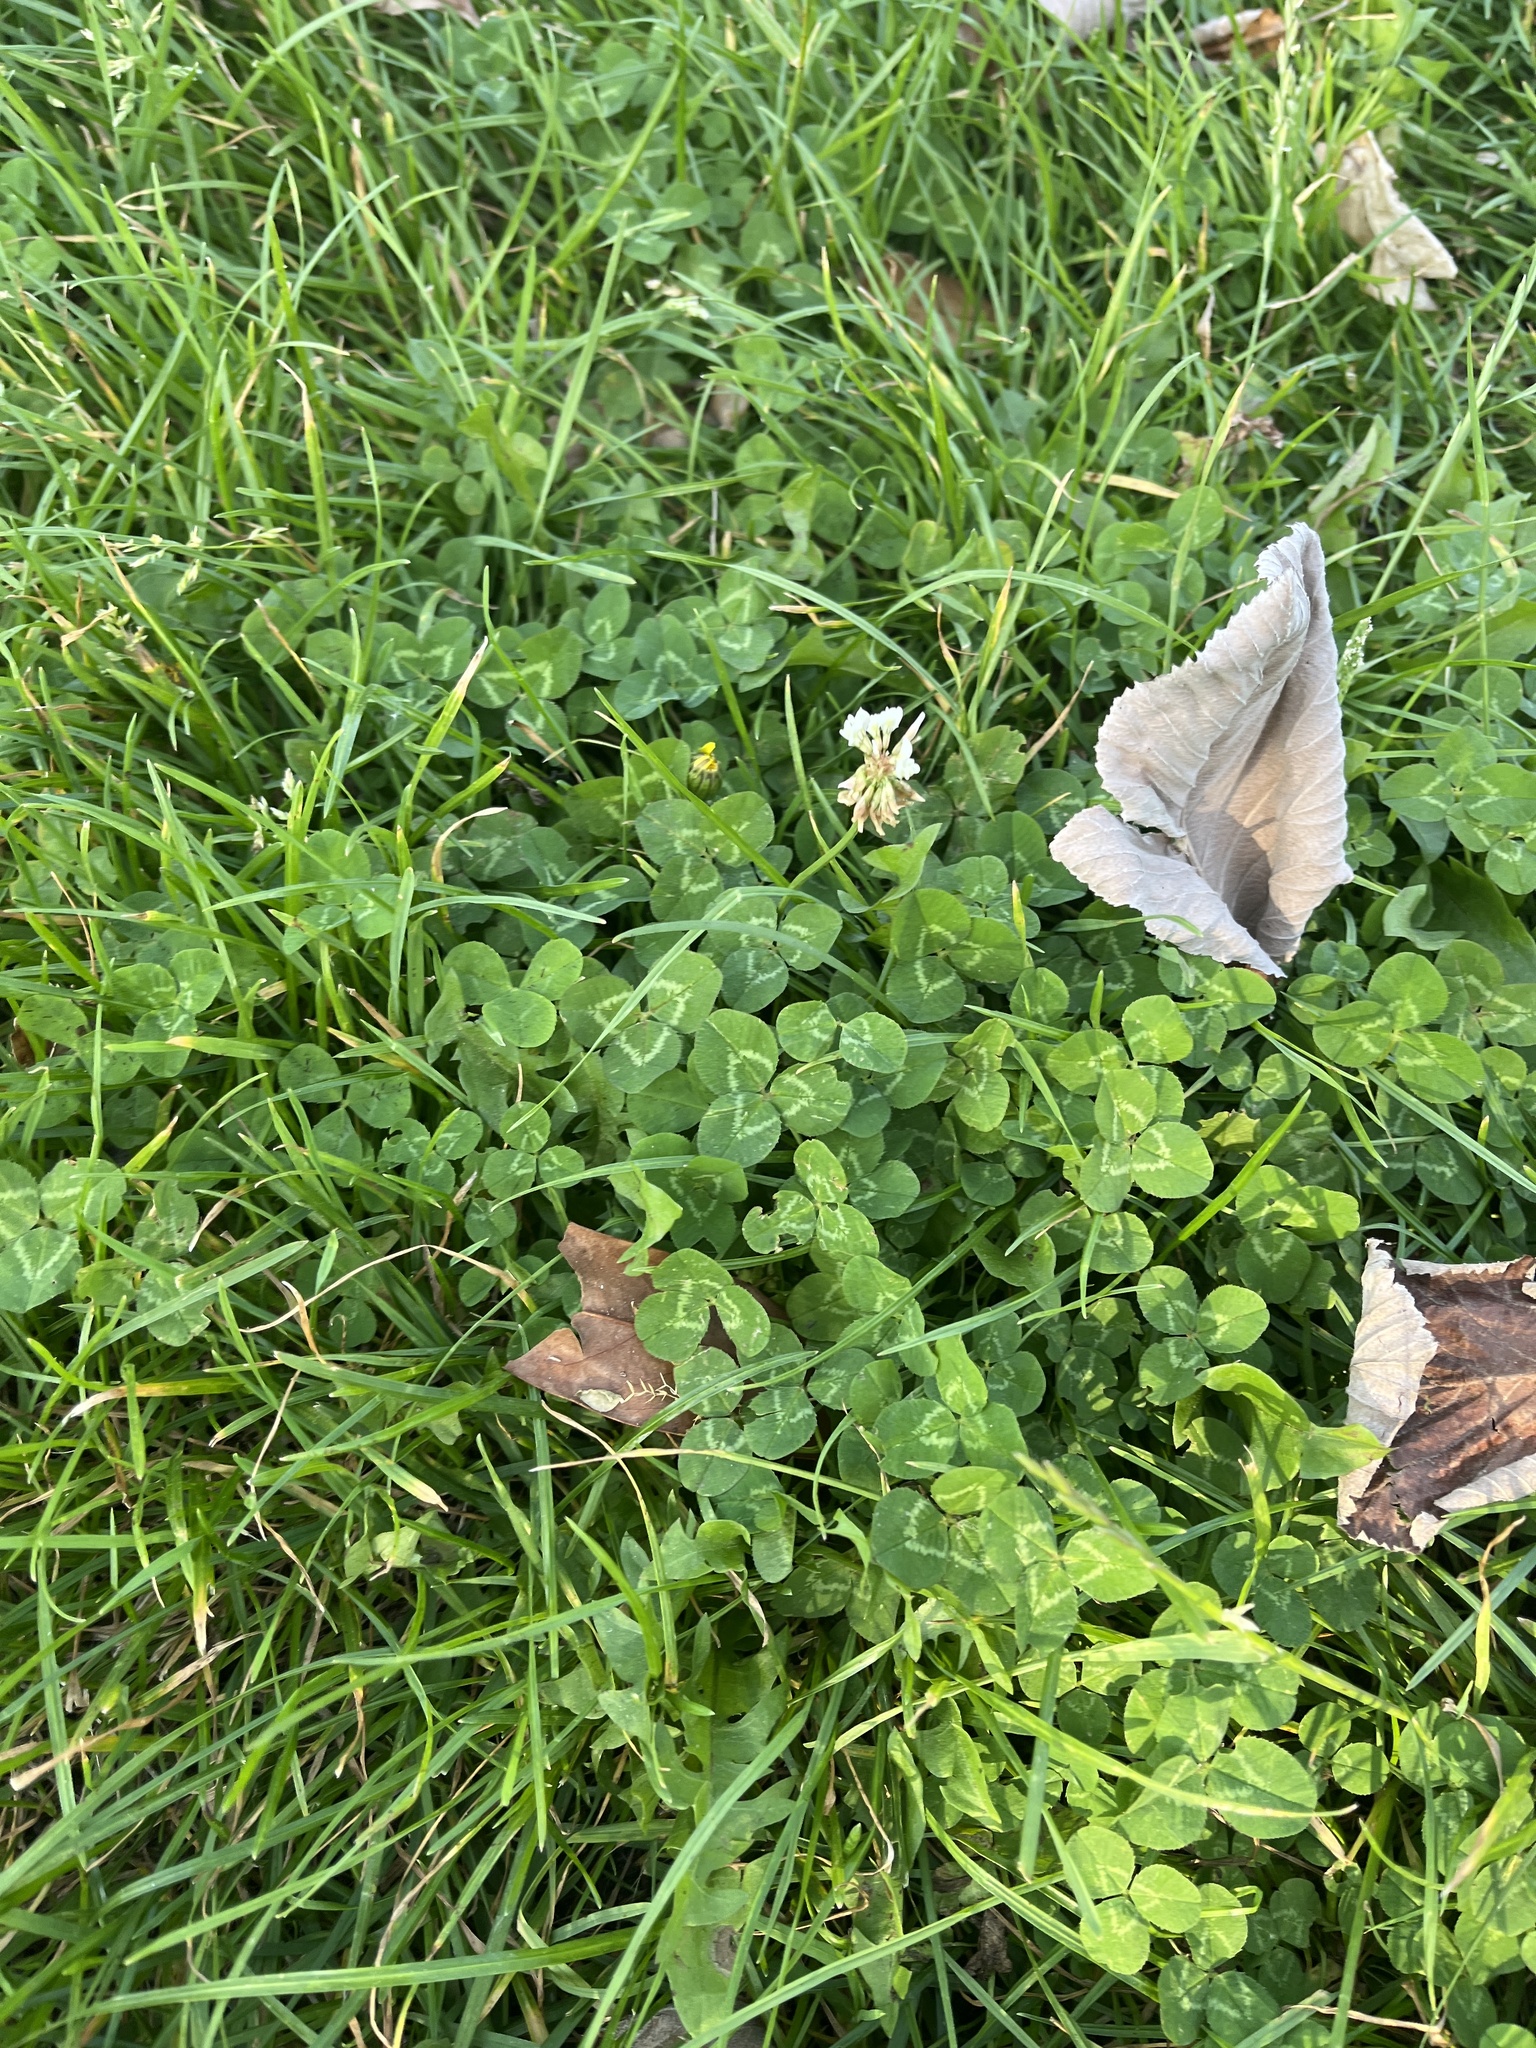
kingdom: Plantae
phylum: Tracheophyta
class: Magnoliopsida
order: Fabales
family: Fabaceae
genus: Trifolium
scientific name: Trifolium repens
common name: White clover
